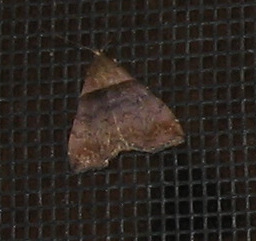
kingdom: Animalia
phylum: Arthropoda
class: Insecta
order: Lepidoptera
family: Erebidae
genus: Lascoria
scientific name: Lascoria ambigualis
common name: Ambiguous moth
